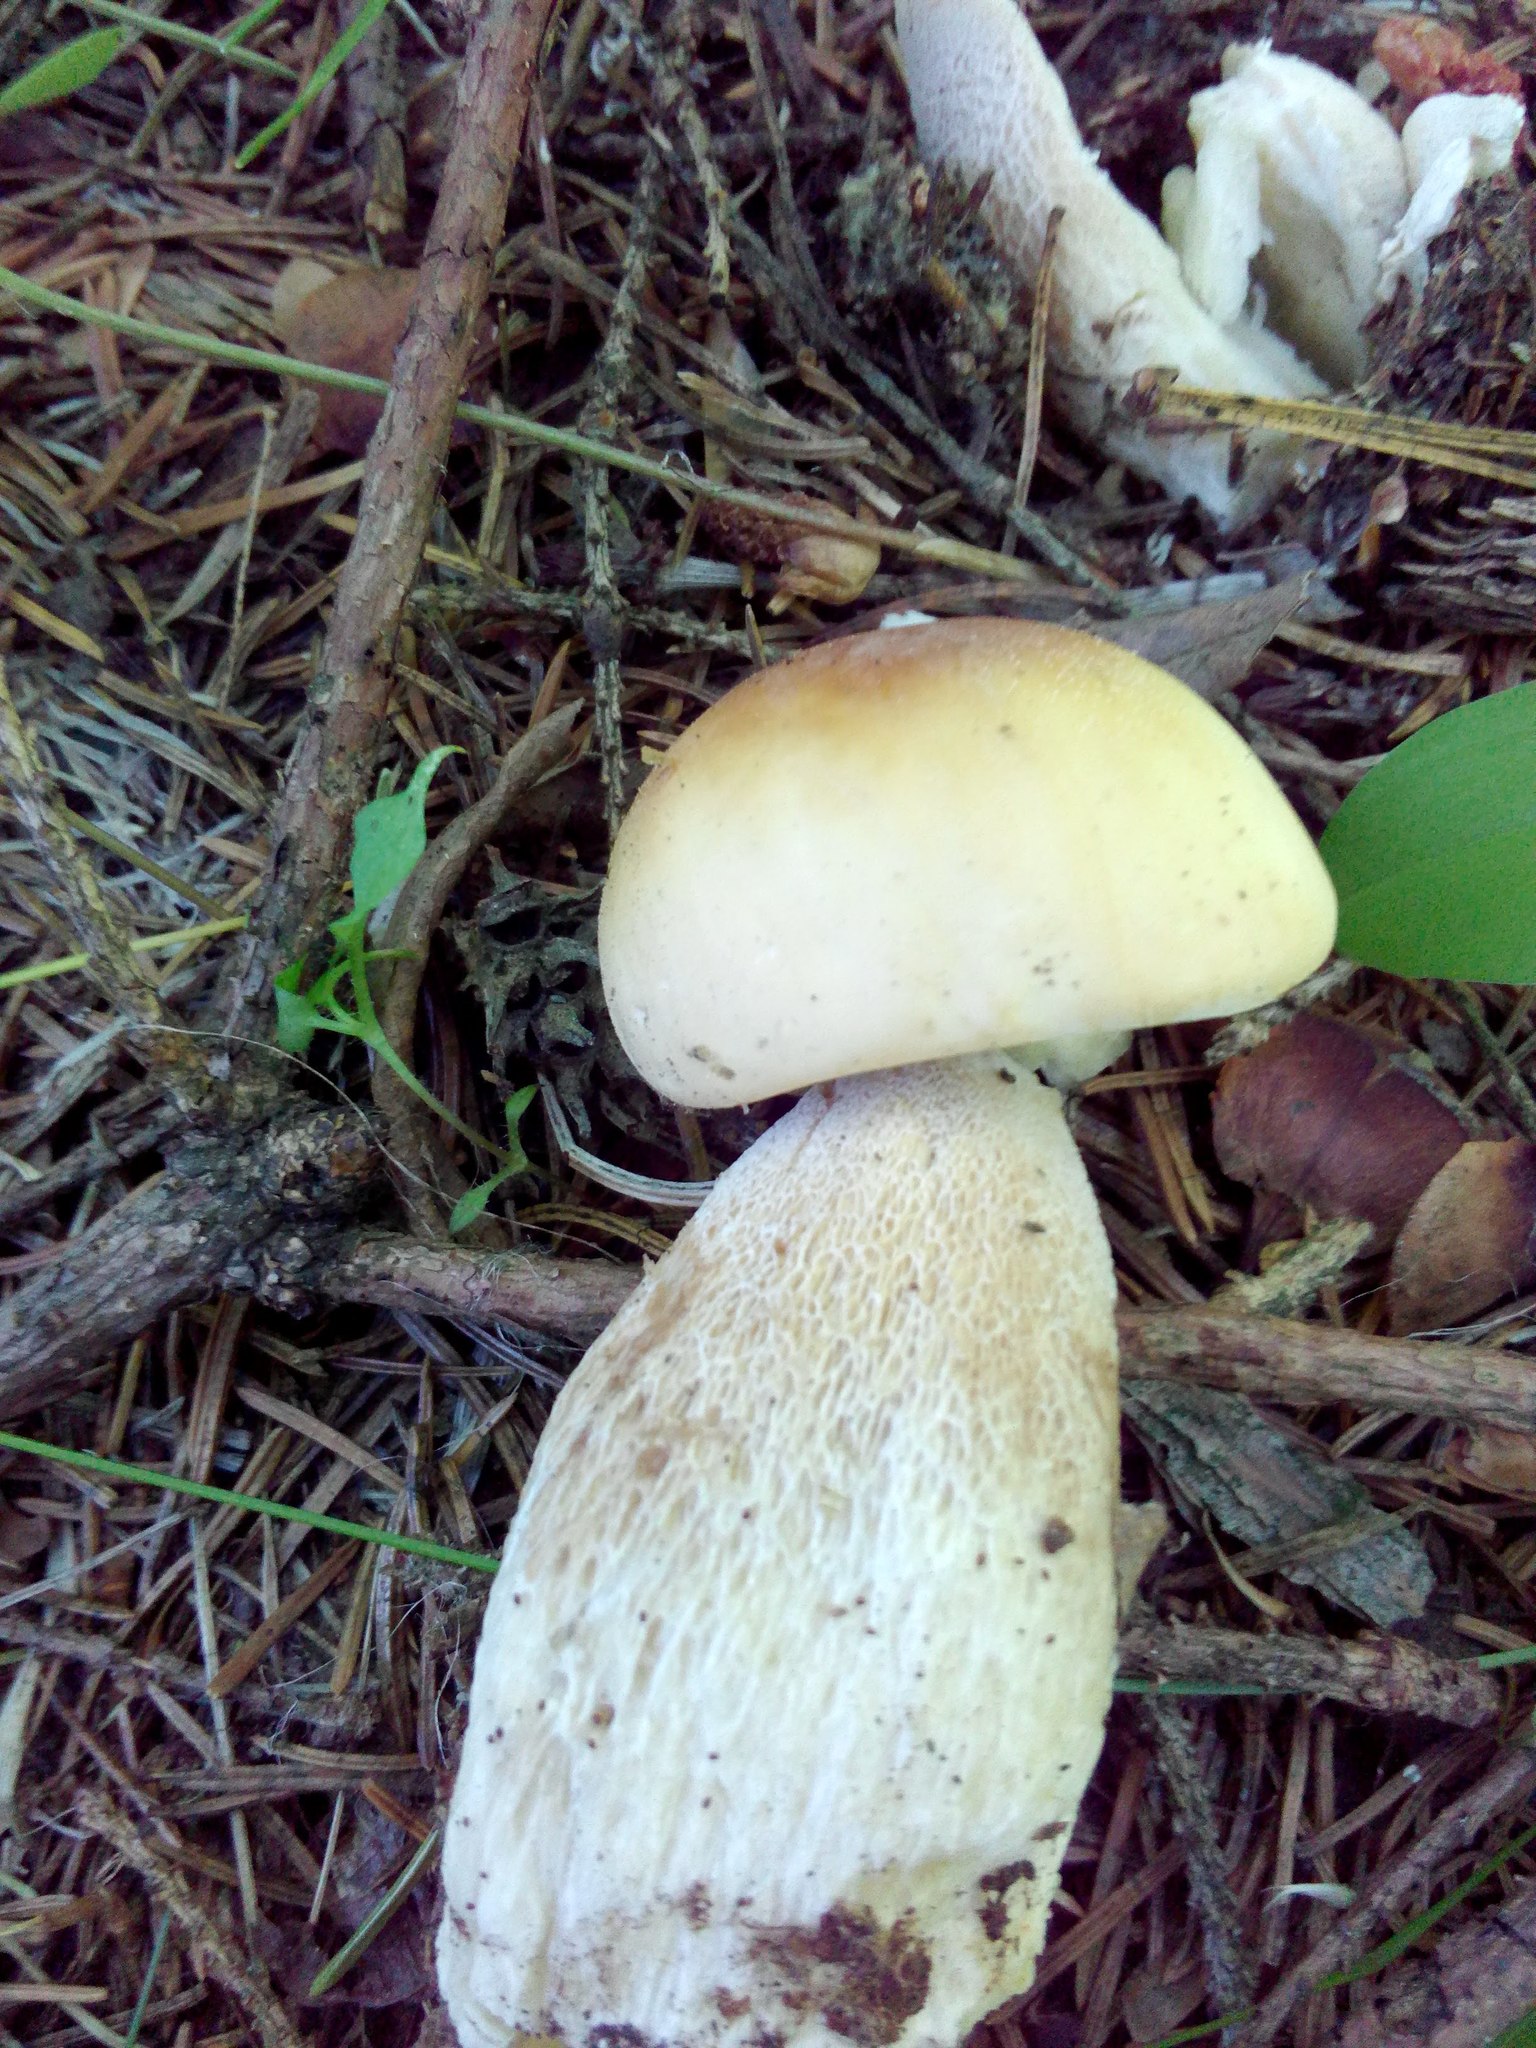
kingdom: Fungi
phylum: Basidiomycota
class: Agaricomycetes
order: Boletales
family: Boletaceae
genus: Boletus
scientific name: Boletus edulis
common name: Cep
